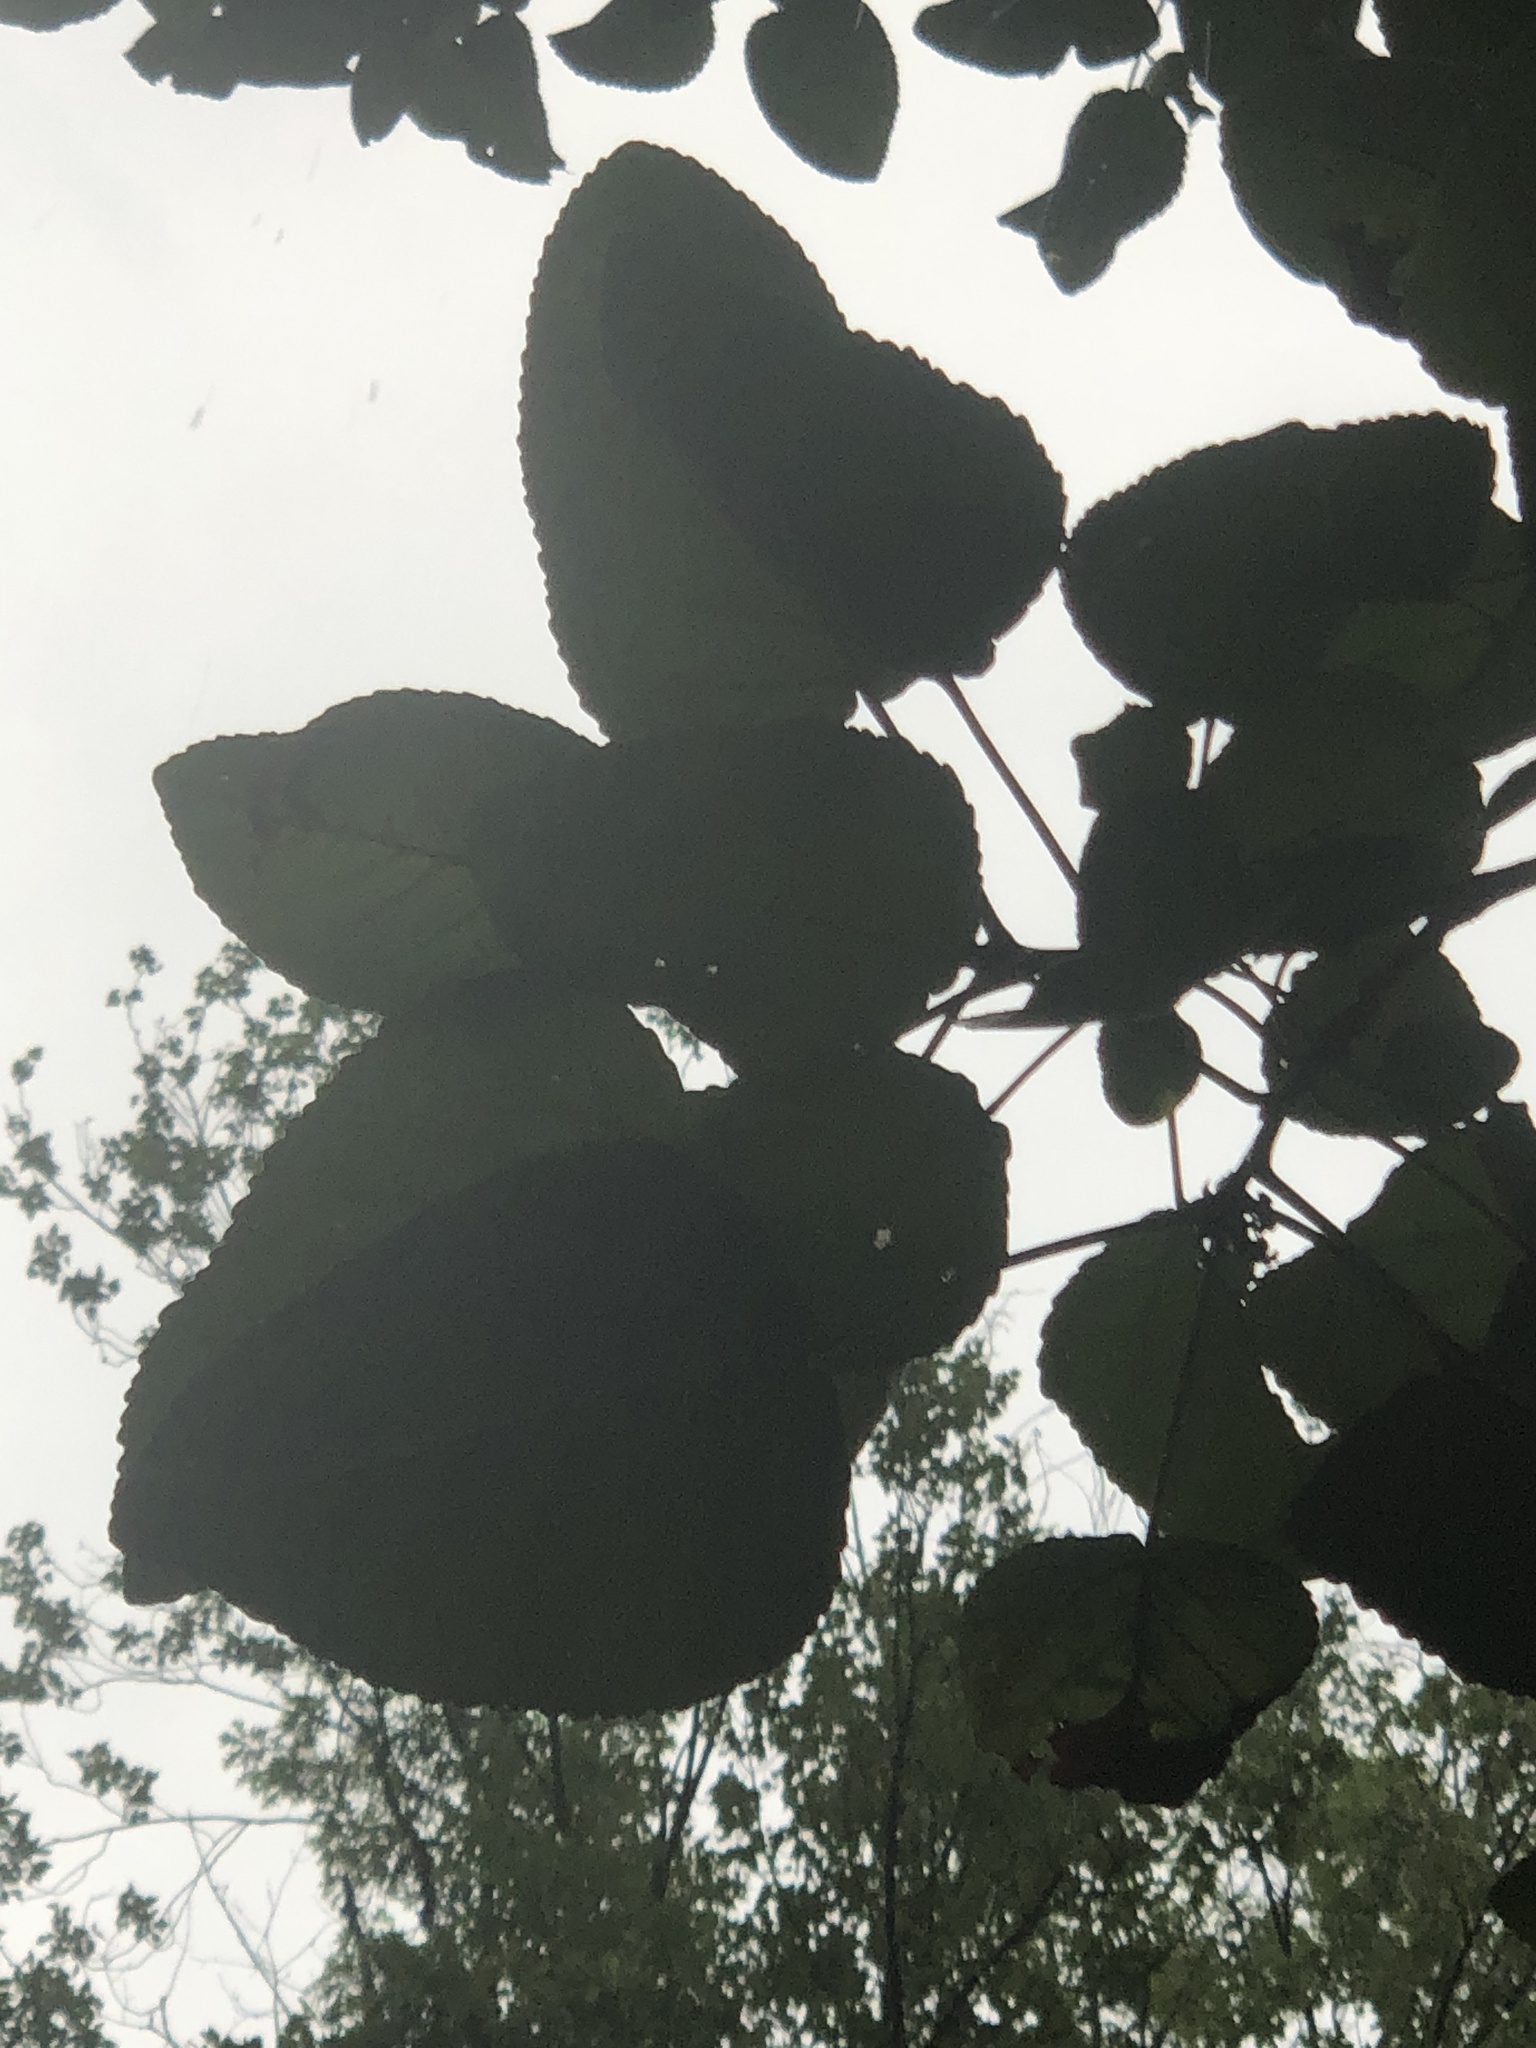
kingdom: Plantae
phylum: Tracheophyta
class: Magnoliopsida
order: Malpighiales
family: Salicaceae
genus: Populus
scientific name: Populus heterophylla
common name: Downy poplar
